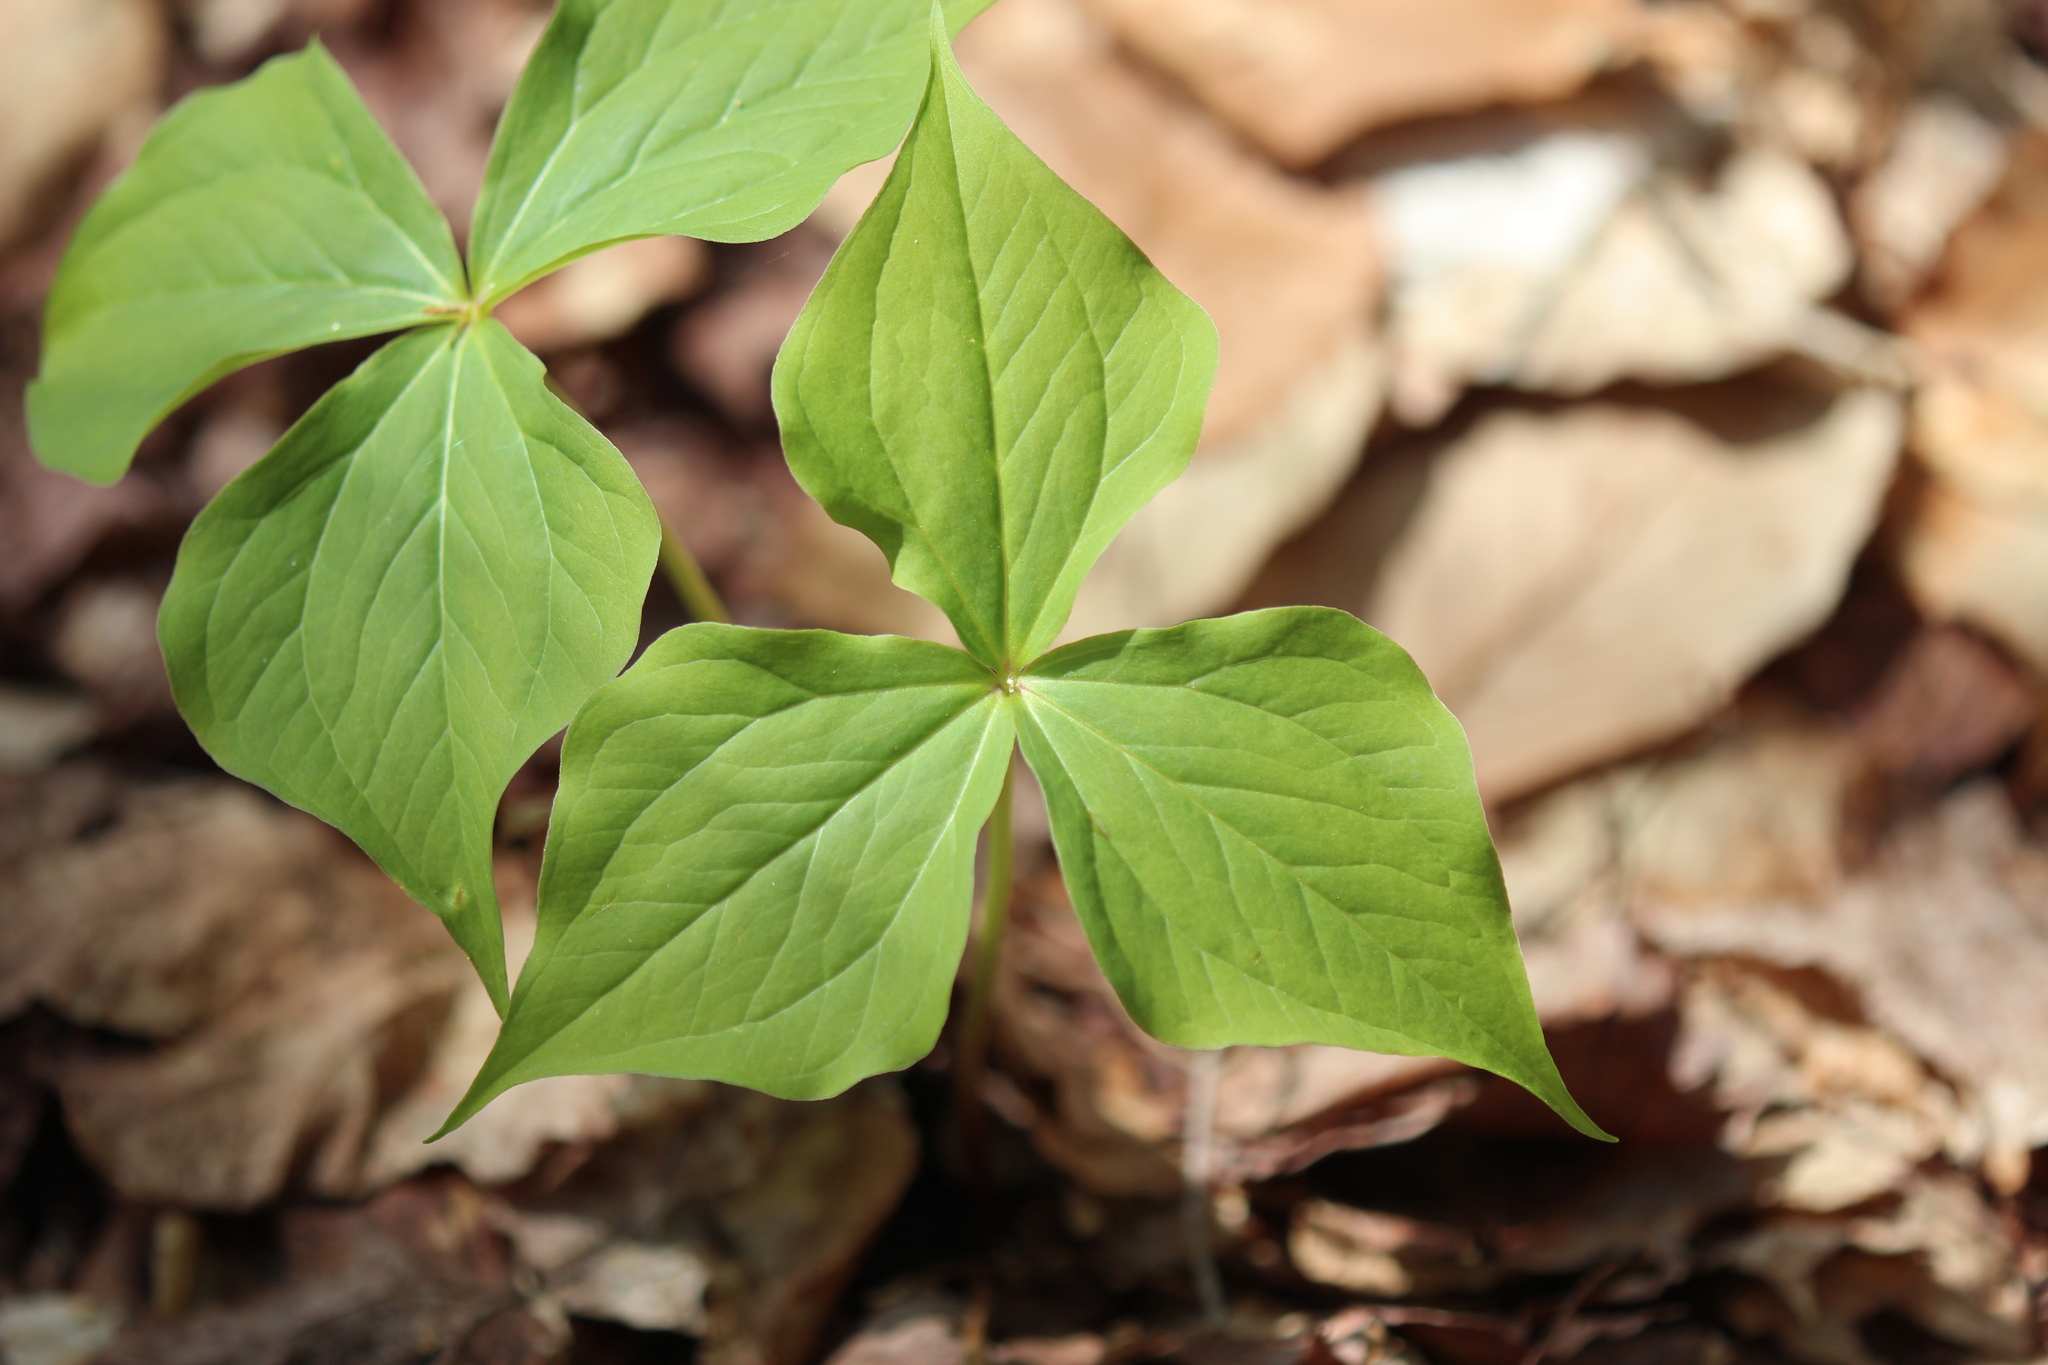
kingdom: Plantae
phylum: Tracheophyta
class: Liliopsida
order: Liliales
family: Melanthiaceae
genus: Trillium
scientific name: Trillium erectum
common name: Purple trillium
